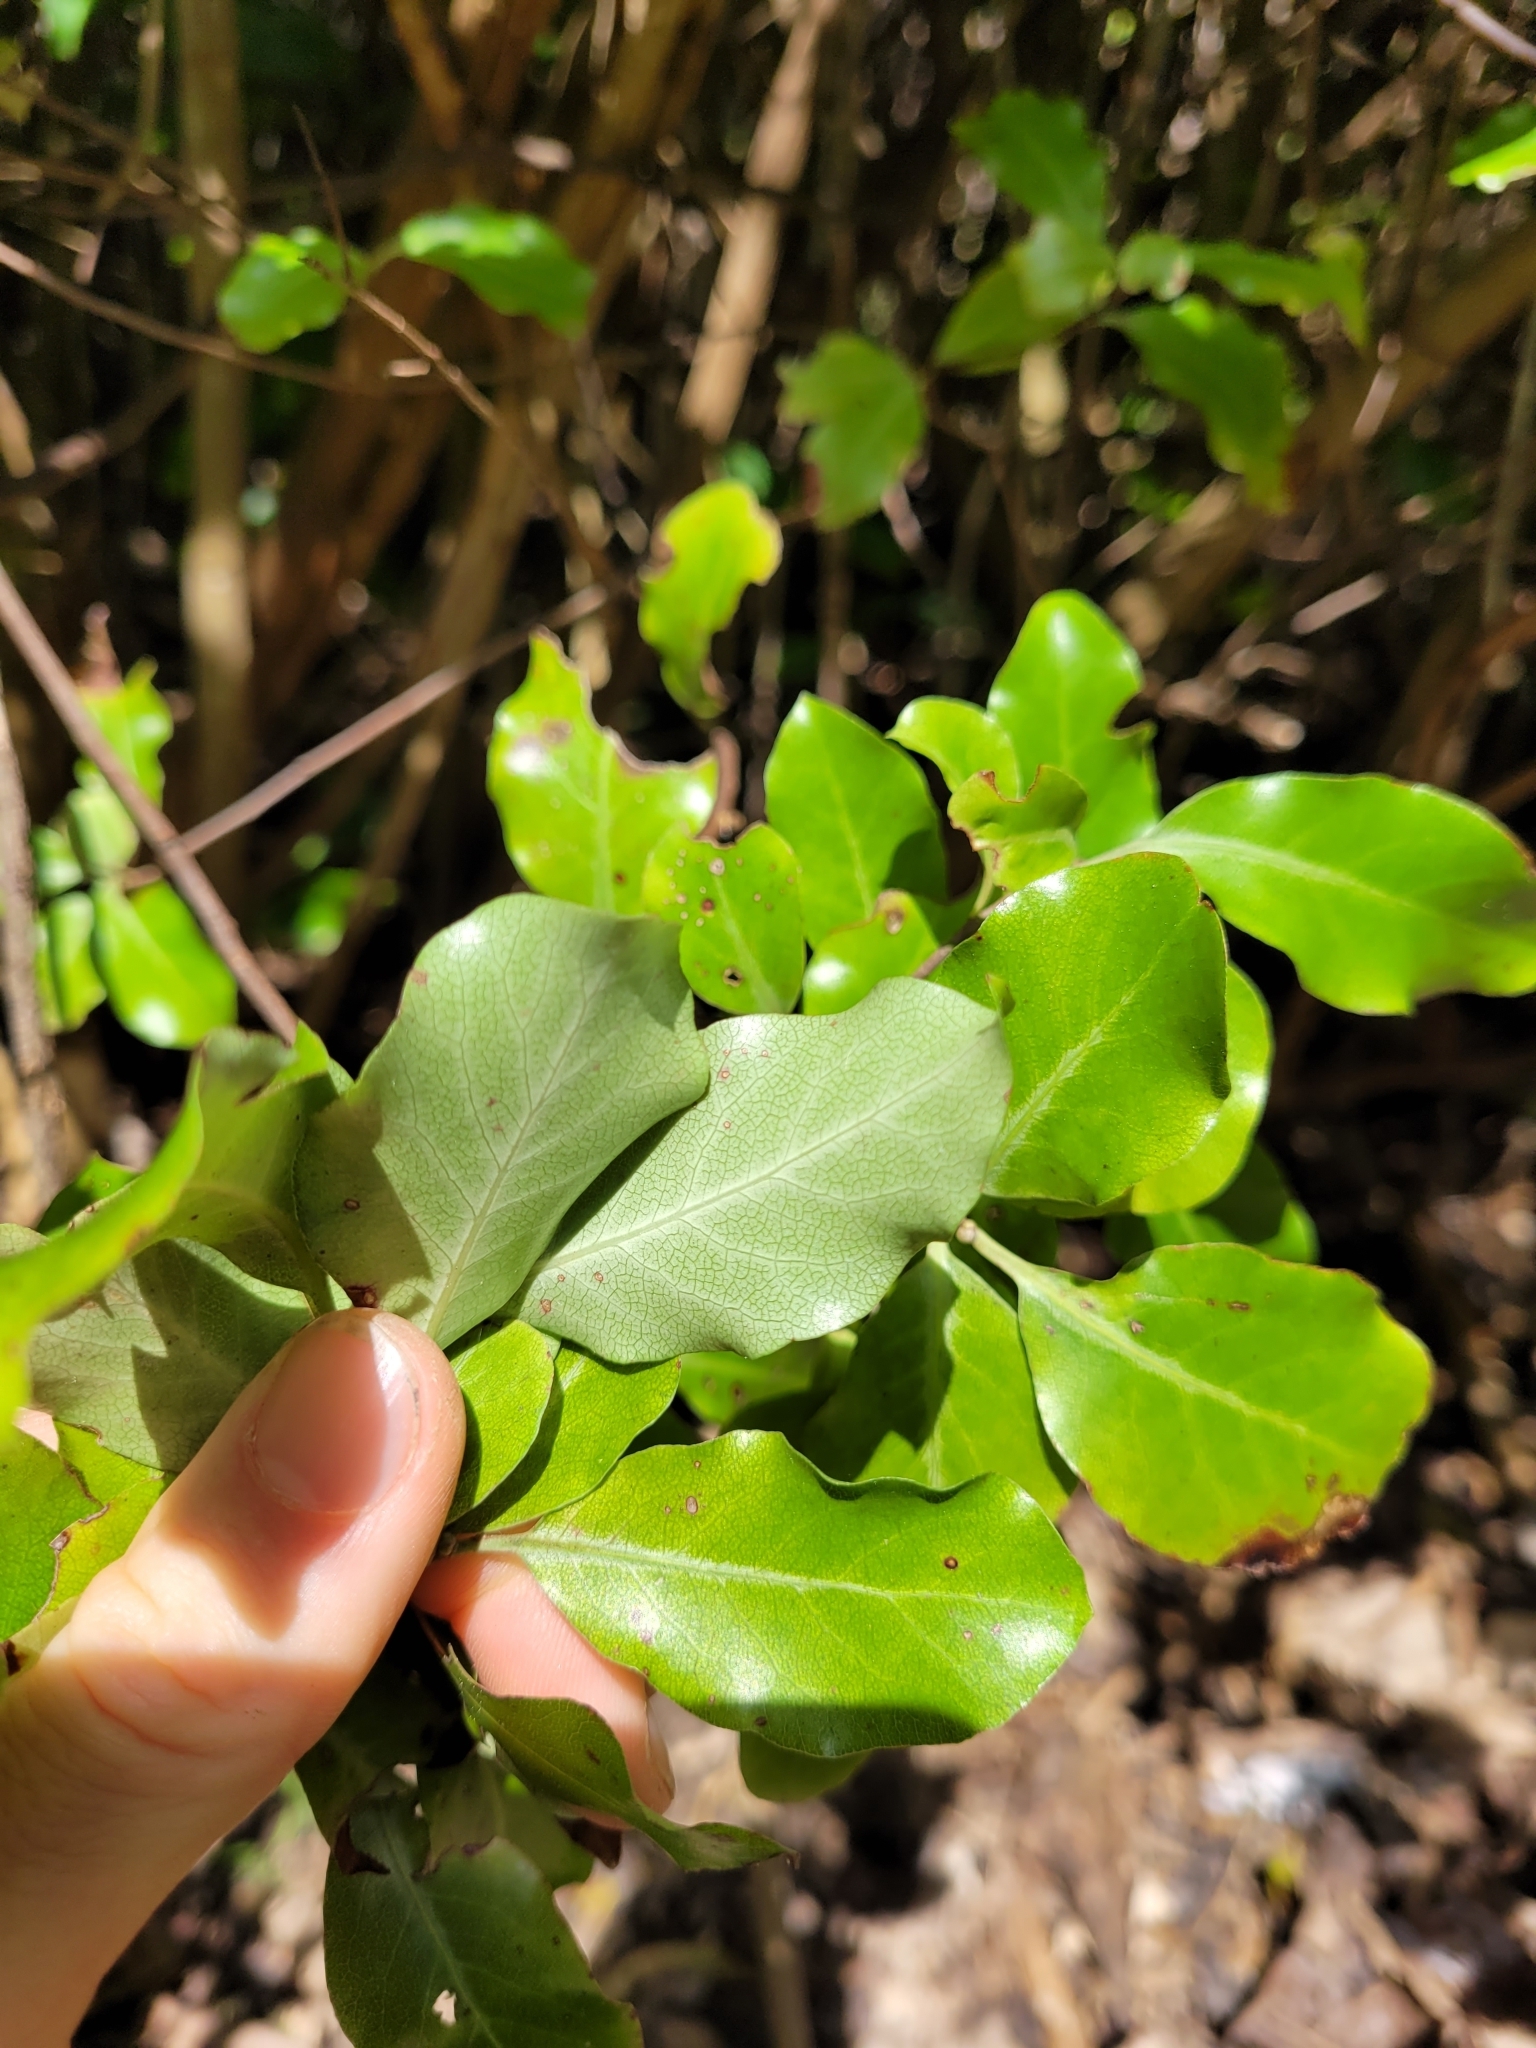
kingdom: Plantae
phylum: Tracheophyta
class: Magnoliopsida
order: Apiales
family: Pittosporaceae
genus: Pittosporum
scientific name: Pittosporum tenuifolium
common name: Kohuhu
